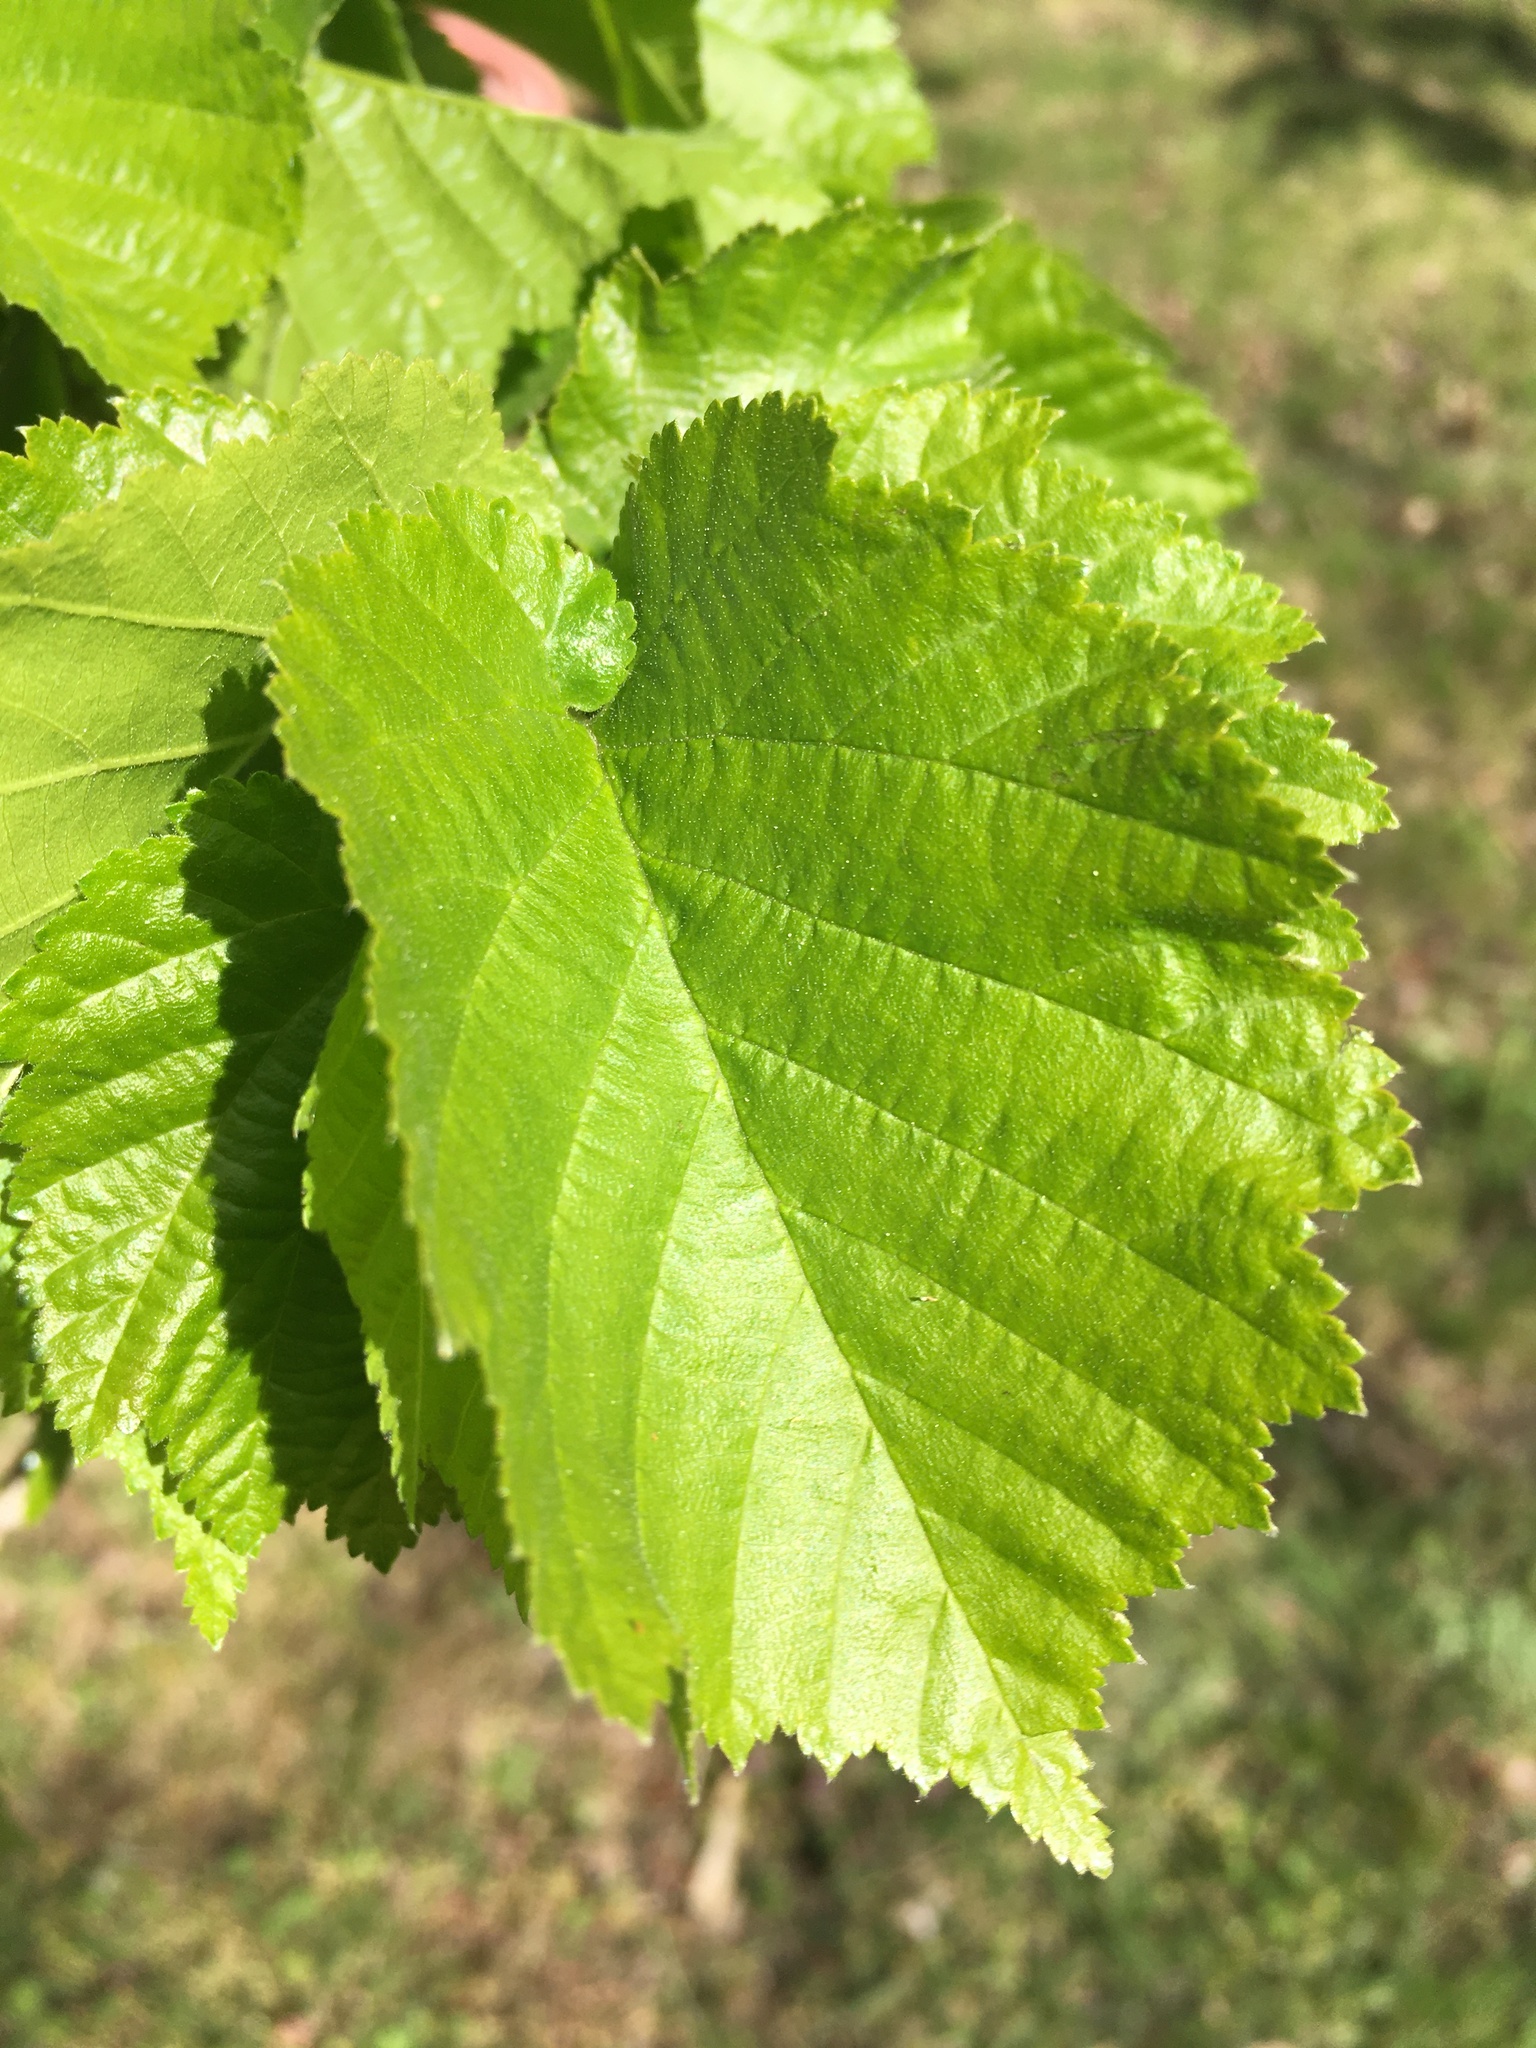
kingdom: Plantae
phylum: Tracheophyta
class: Magnoliopsida
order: Fagales
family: Betulaceae
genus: Corylus
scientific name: Corylus colurna
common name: Turkish hazel
